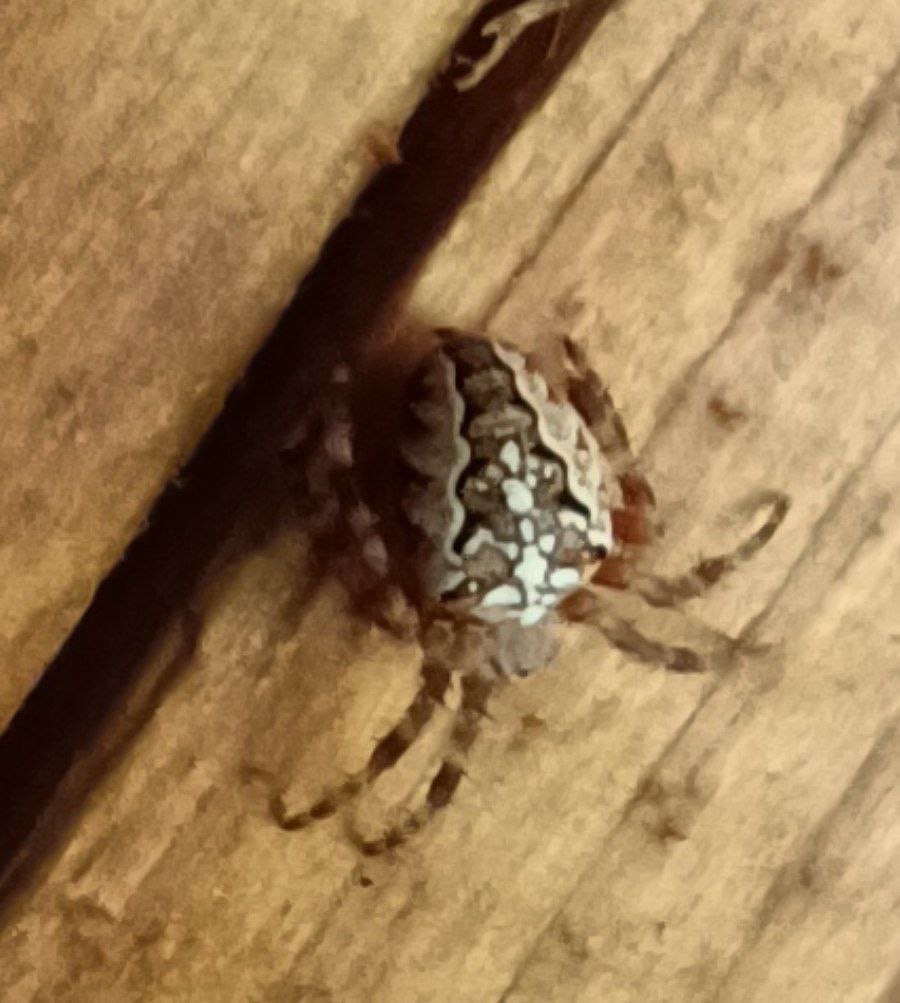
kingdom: Animalia
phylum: Arthropoda
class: Arachnida
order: Araneae
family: Araneidae
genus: Araneus
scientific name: Araneus diadematus
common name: Cross orbweaver
